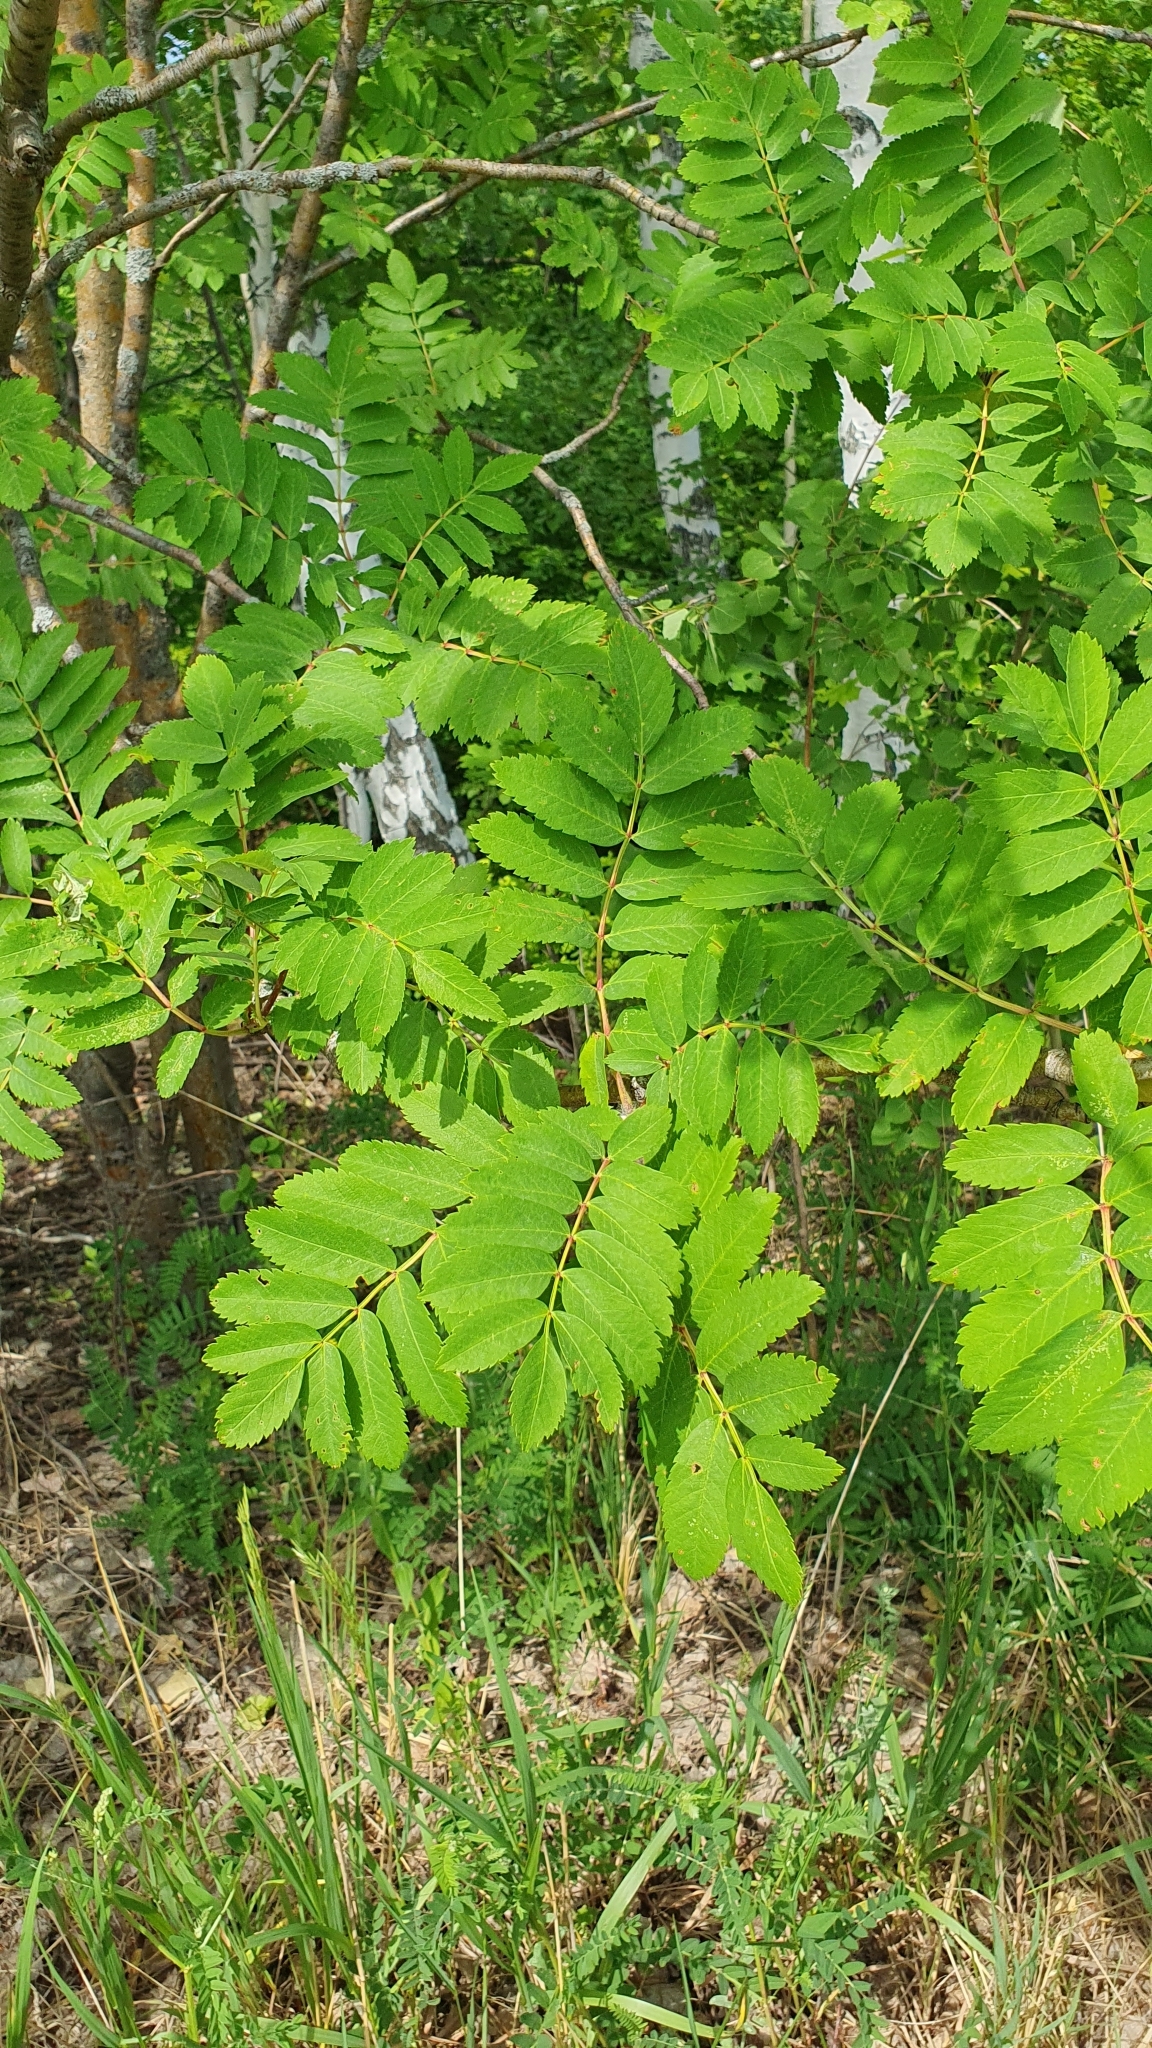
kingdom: Plantae
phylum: Tracheophyta
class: Magnoliopsida
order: Rosales
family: Rosaceae
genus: Sorbus
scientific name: Sorbus aucuparia
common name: Rowan
